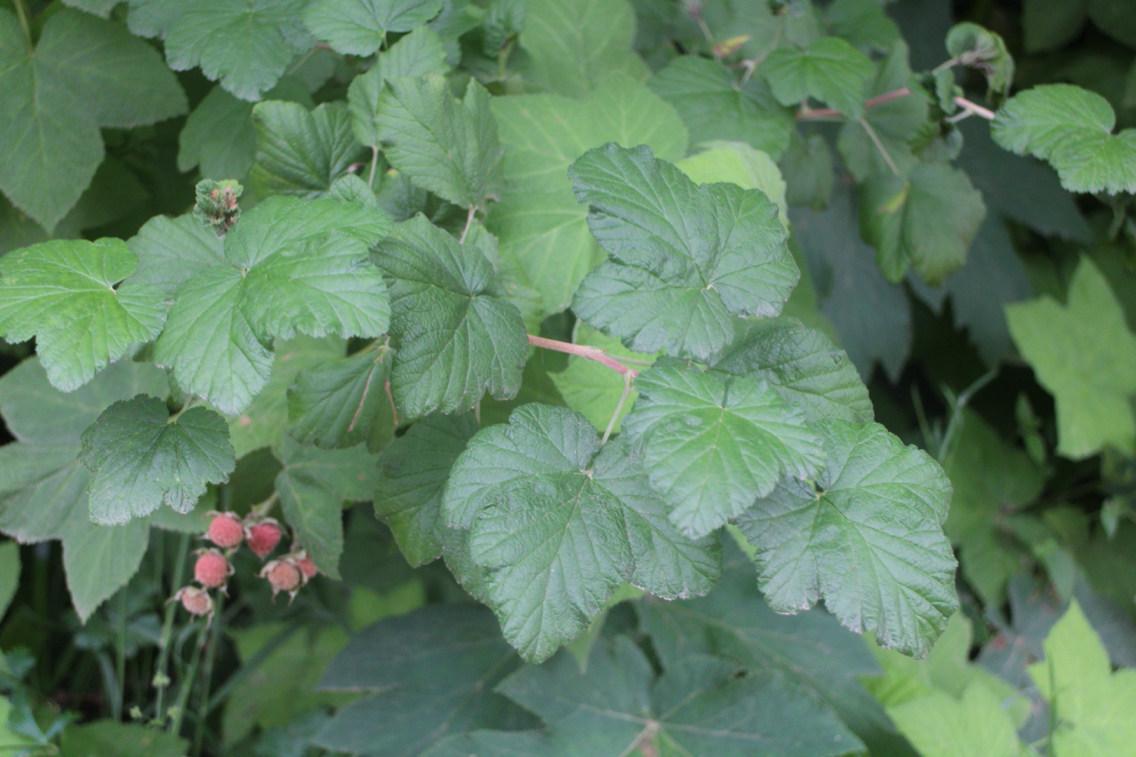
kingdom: Plantae
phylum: Tracheophyta
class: Magnoliopsida
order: Rosales
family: Rosaceae
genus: Rubus
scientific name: Rubus parviflorus
